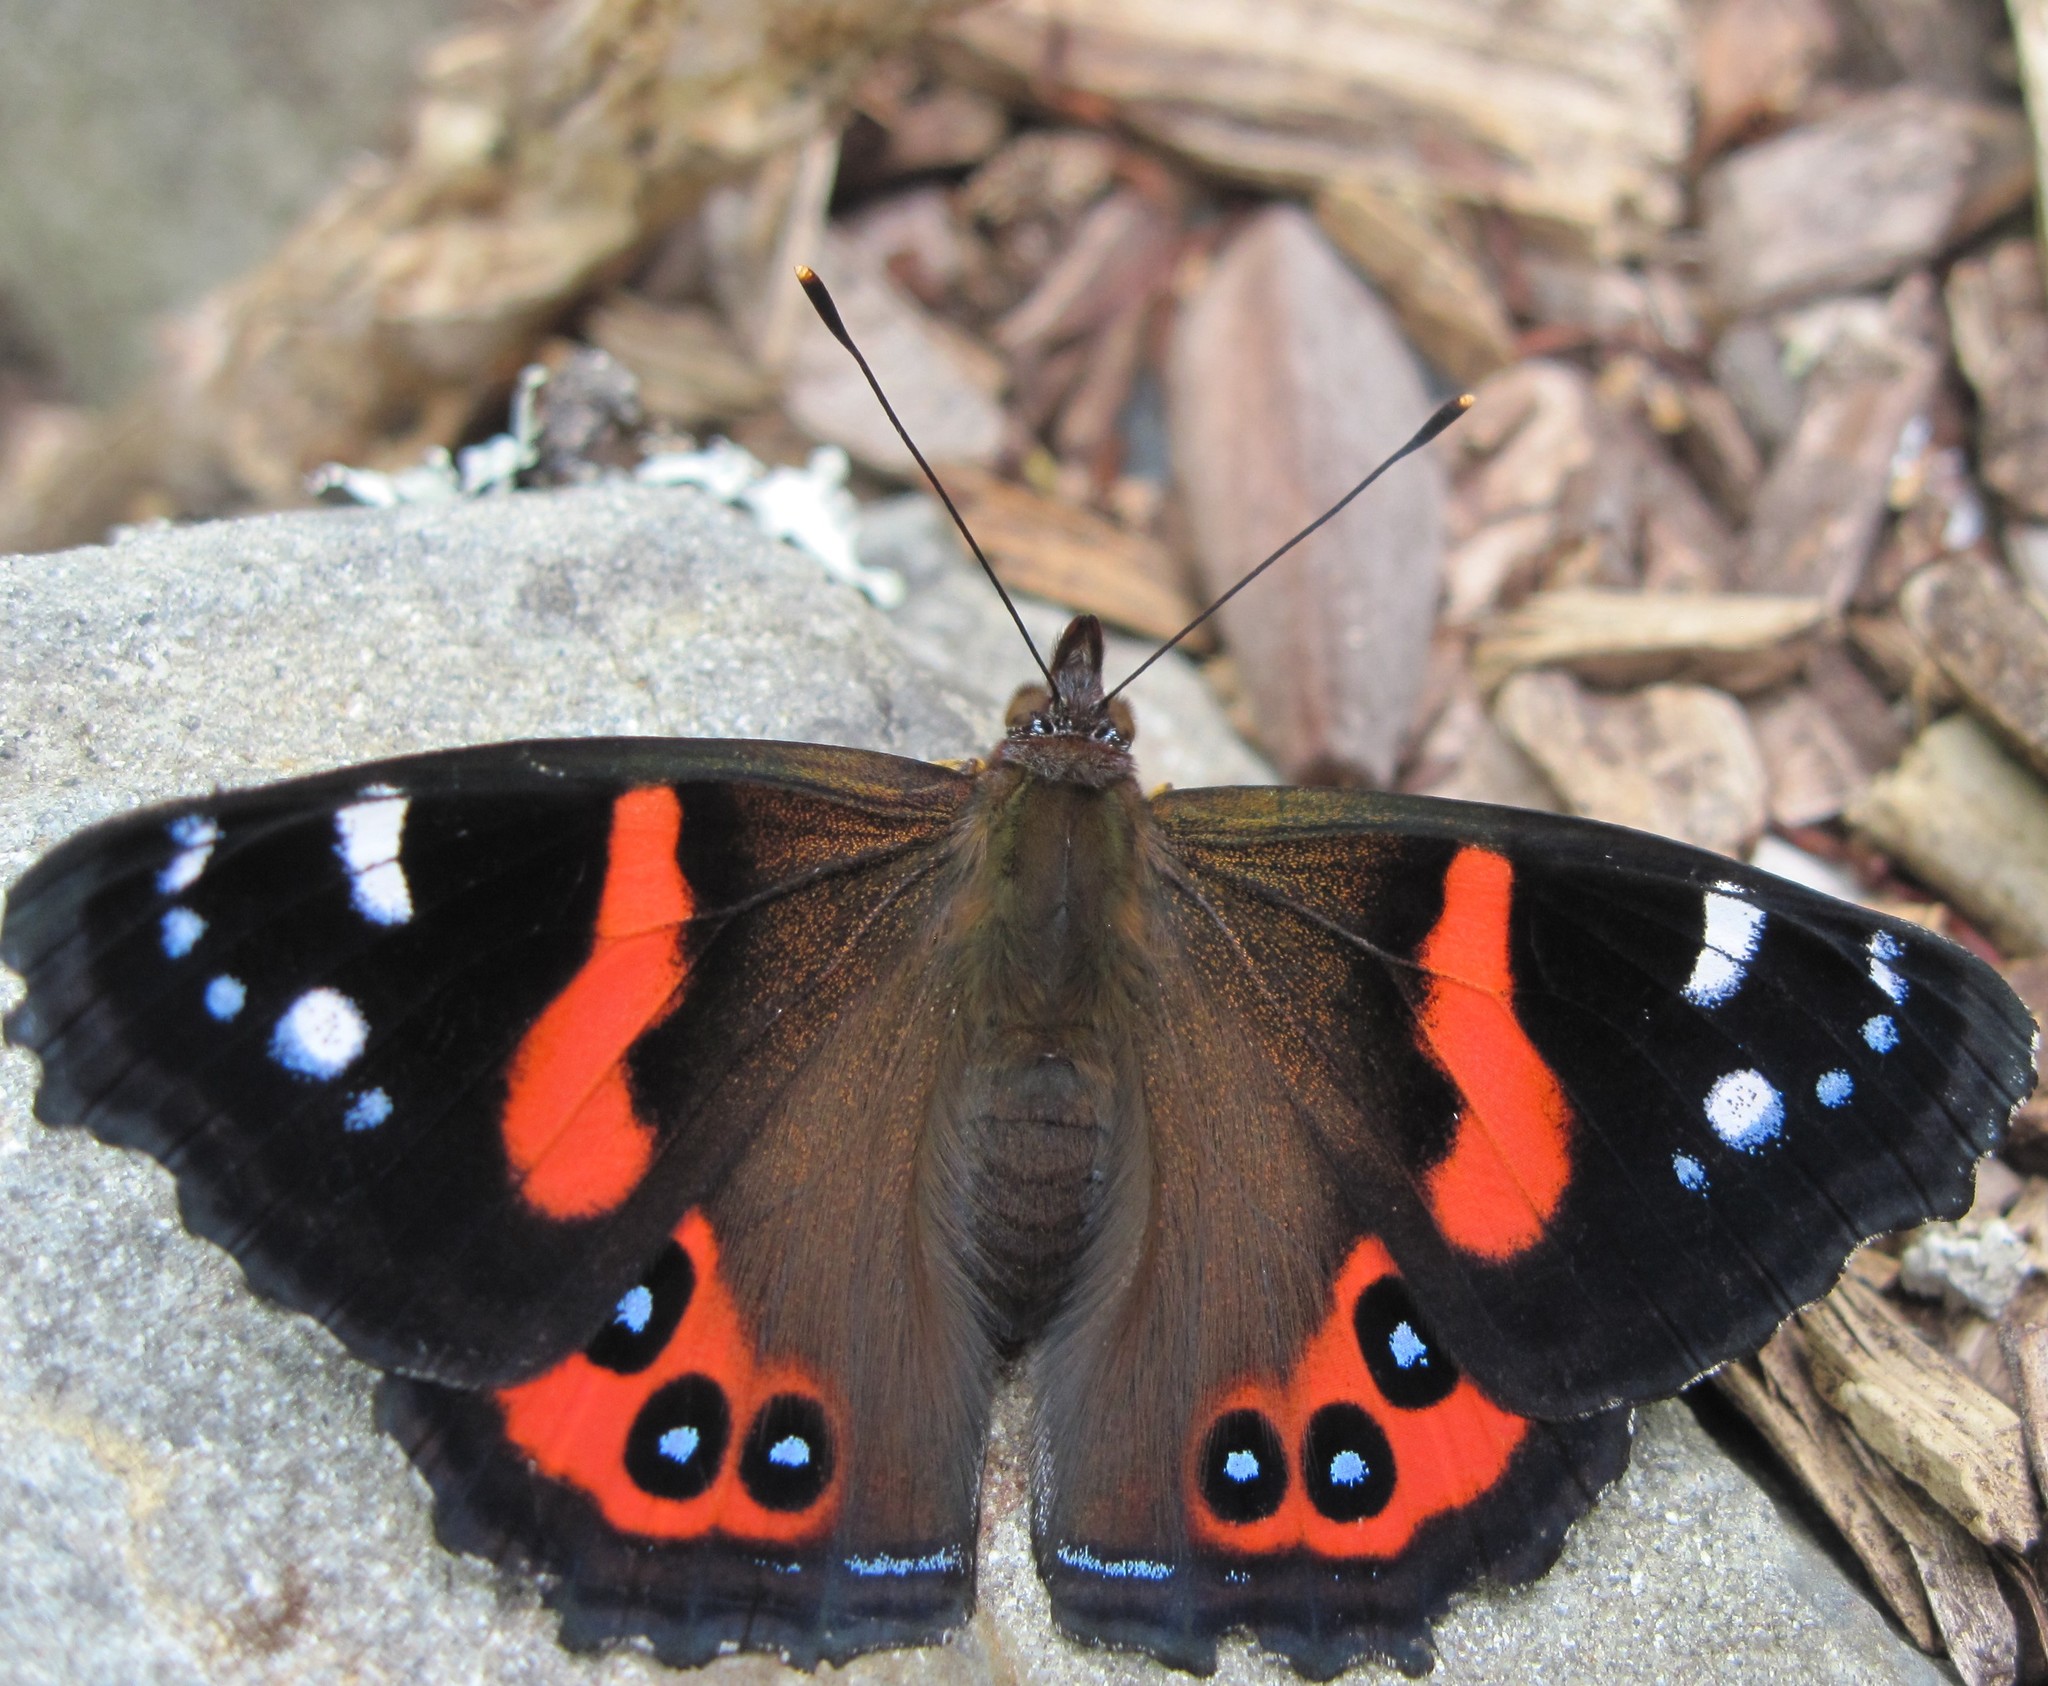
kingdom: Animalia
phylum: Arthropoda
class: Insecta
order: Lepidoptera
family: Nymphalidae
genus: Vanessa
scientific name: Vanessa gonerilla
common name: New zealand red admiral
